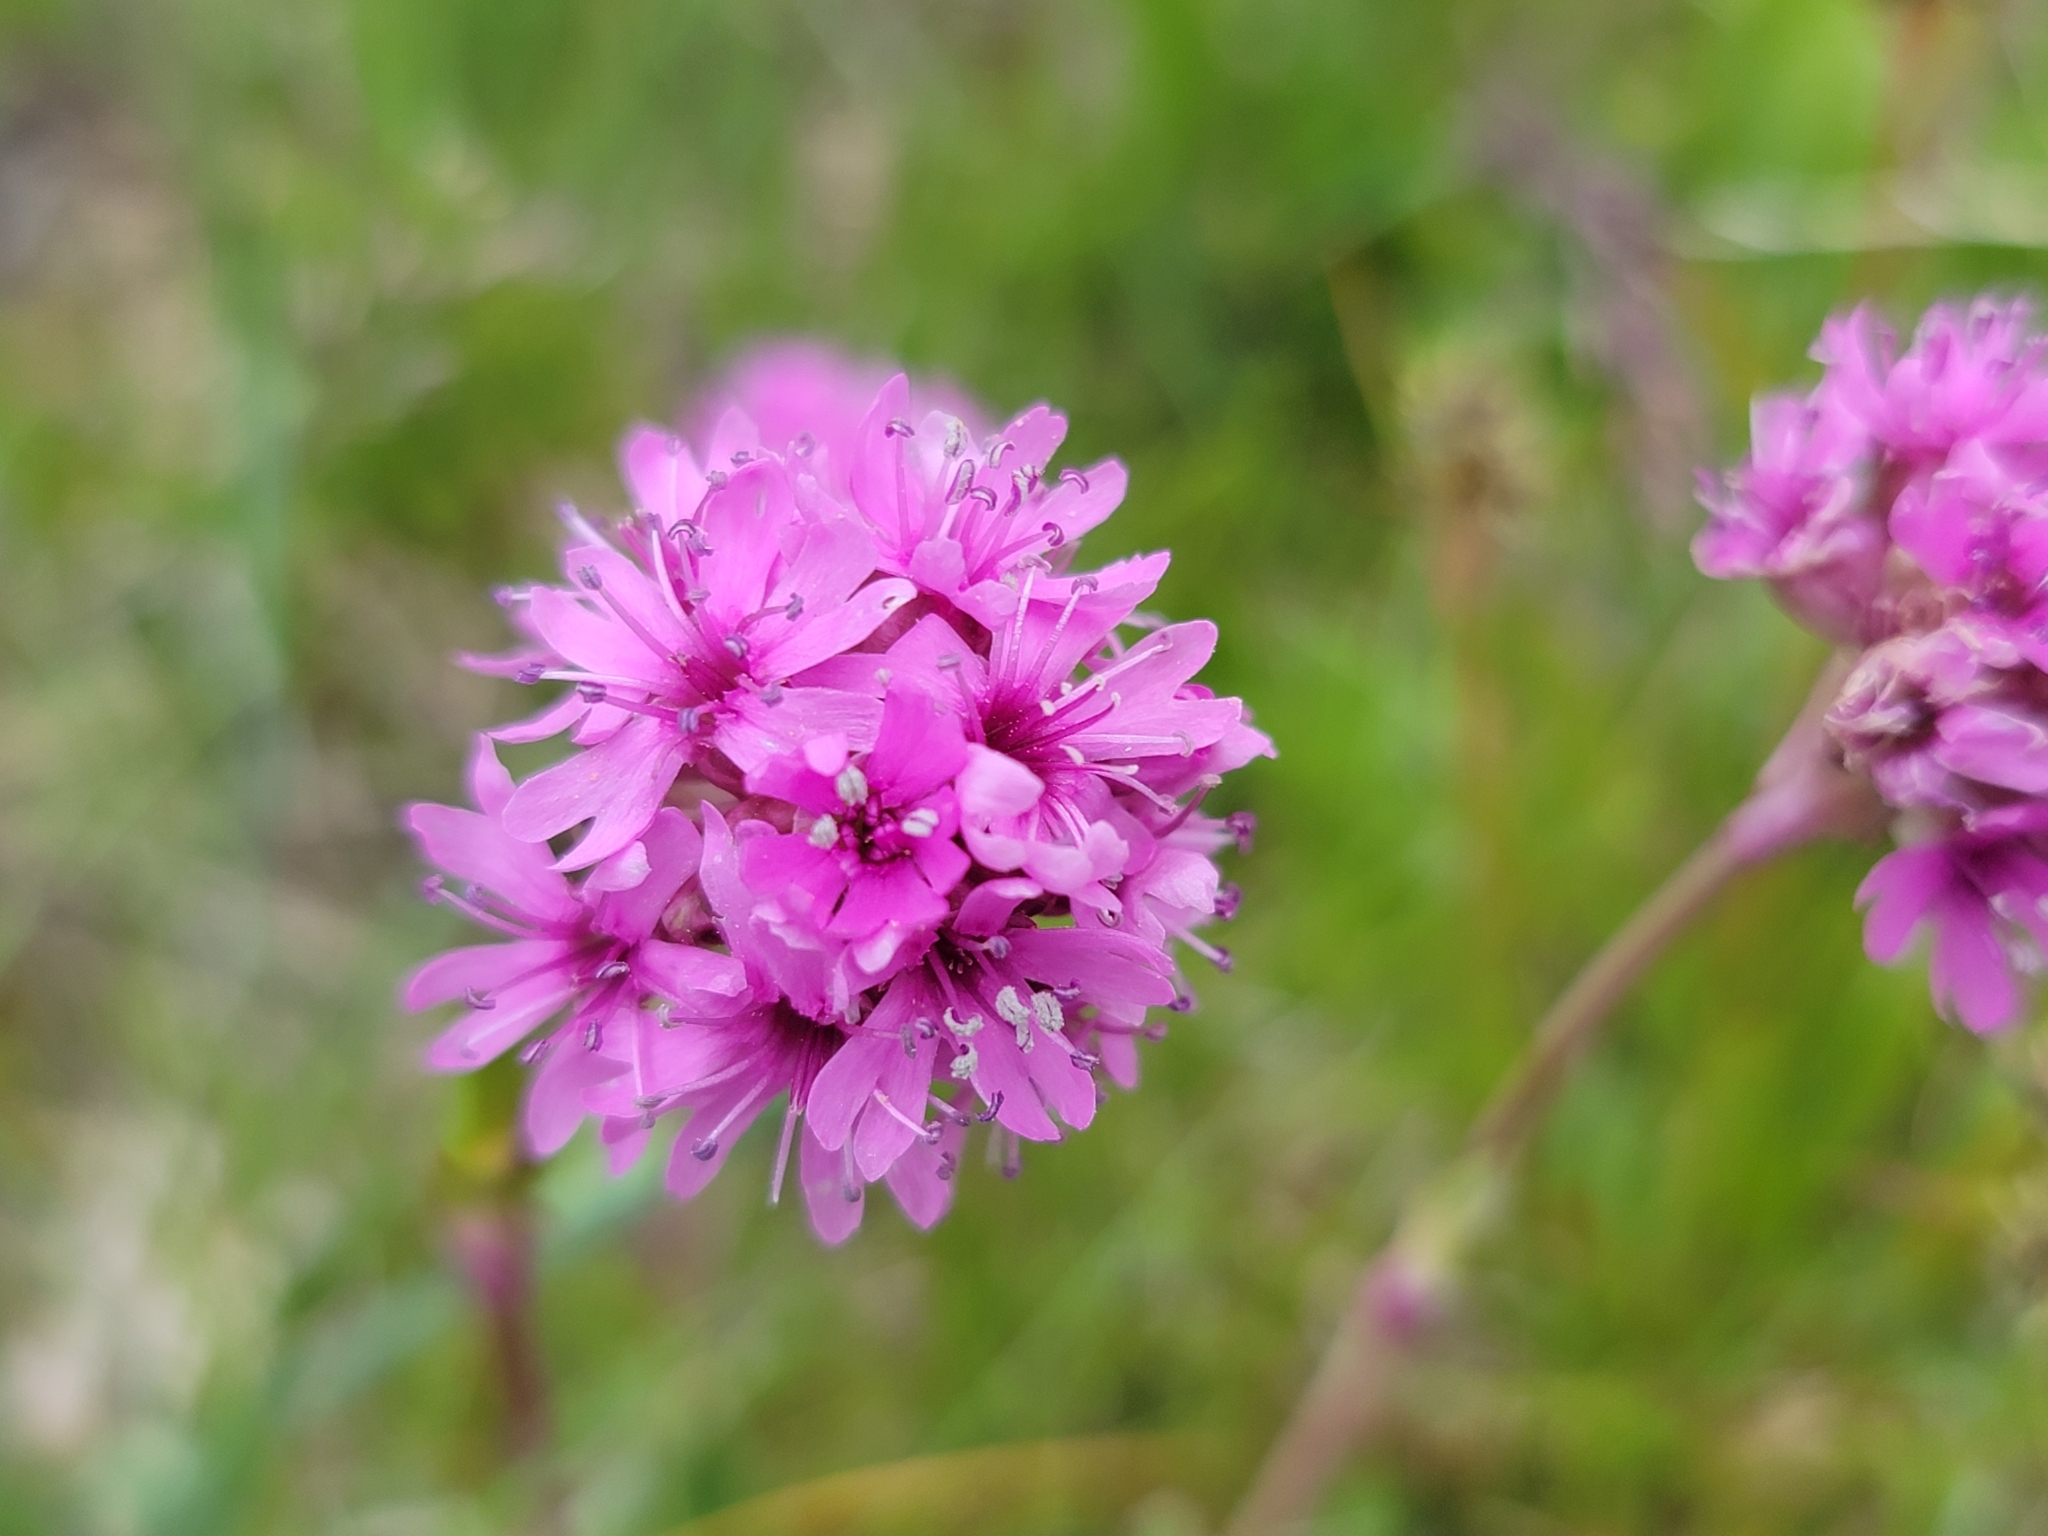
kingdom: Plantae
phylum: Tracheophyta
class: Magnoliopsida
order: Caryophyllales
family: Caryophyllaceae
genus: Viscaria
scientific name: Viscaria alpina
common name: Alpine campion
